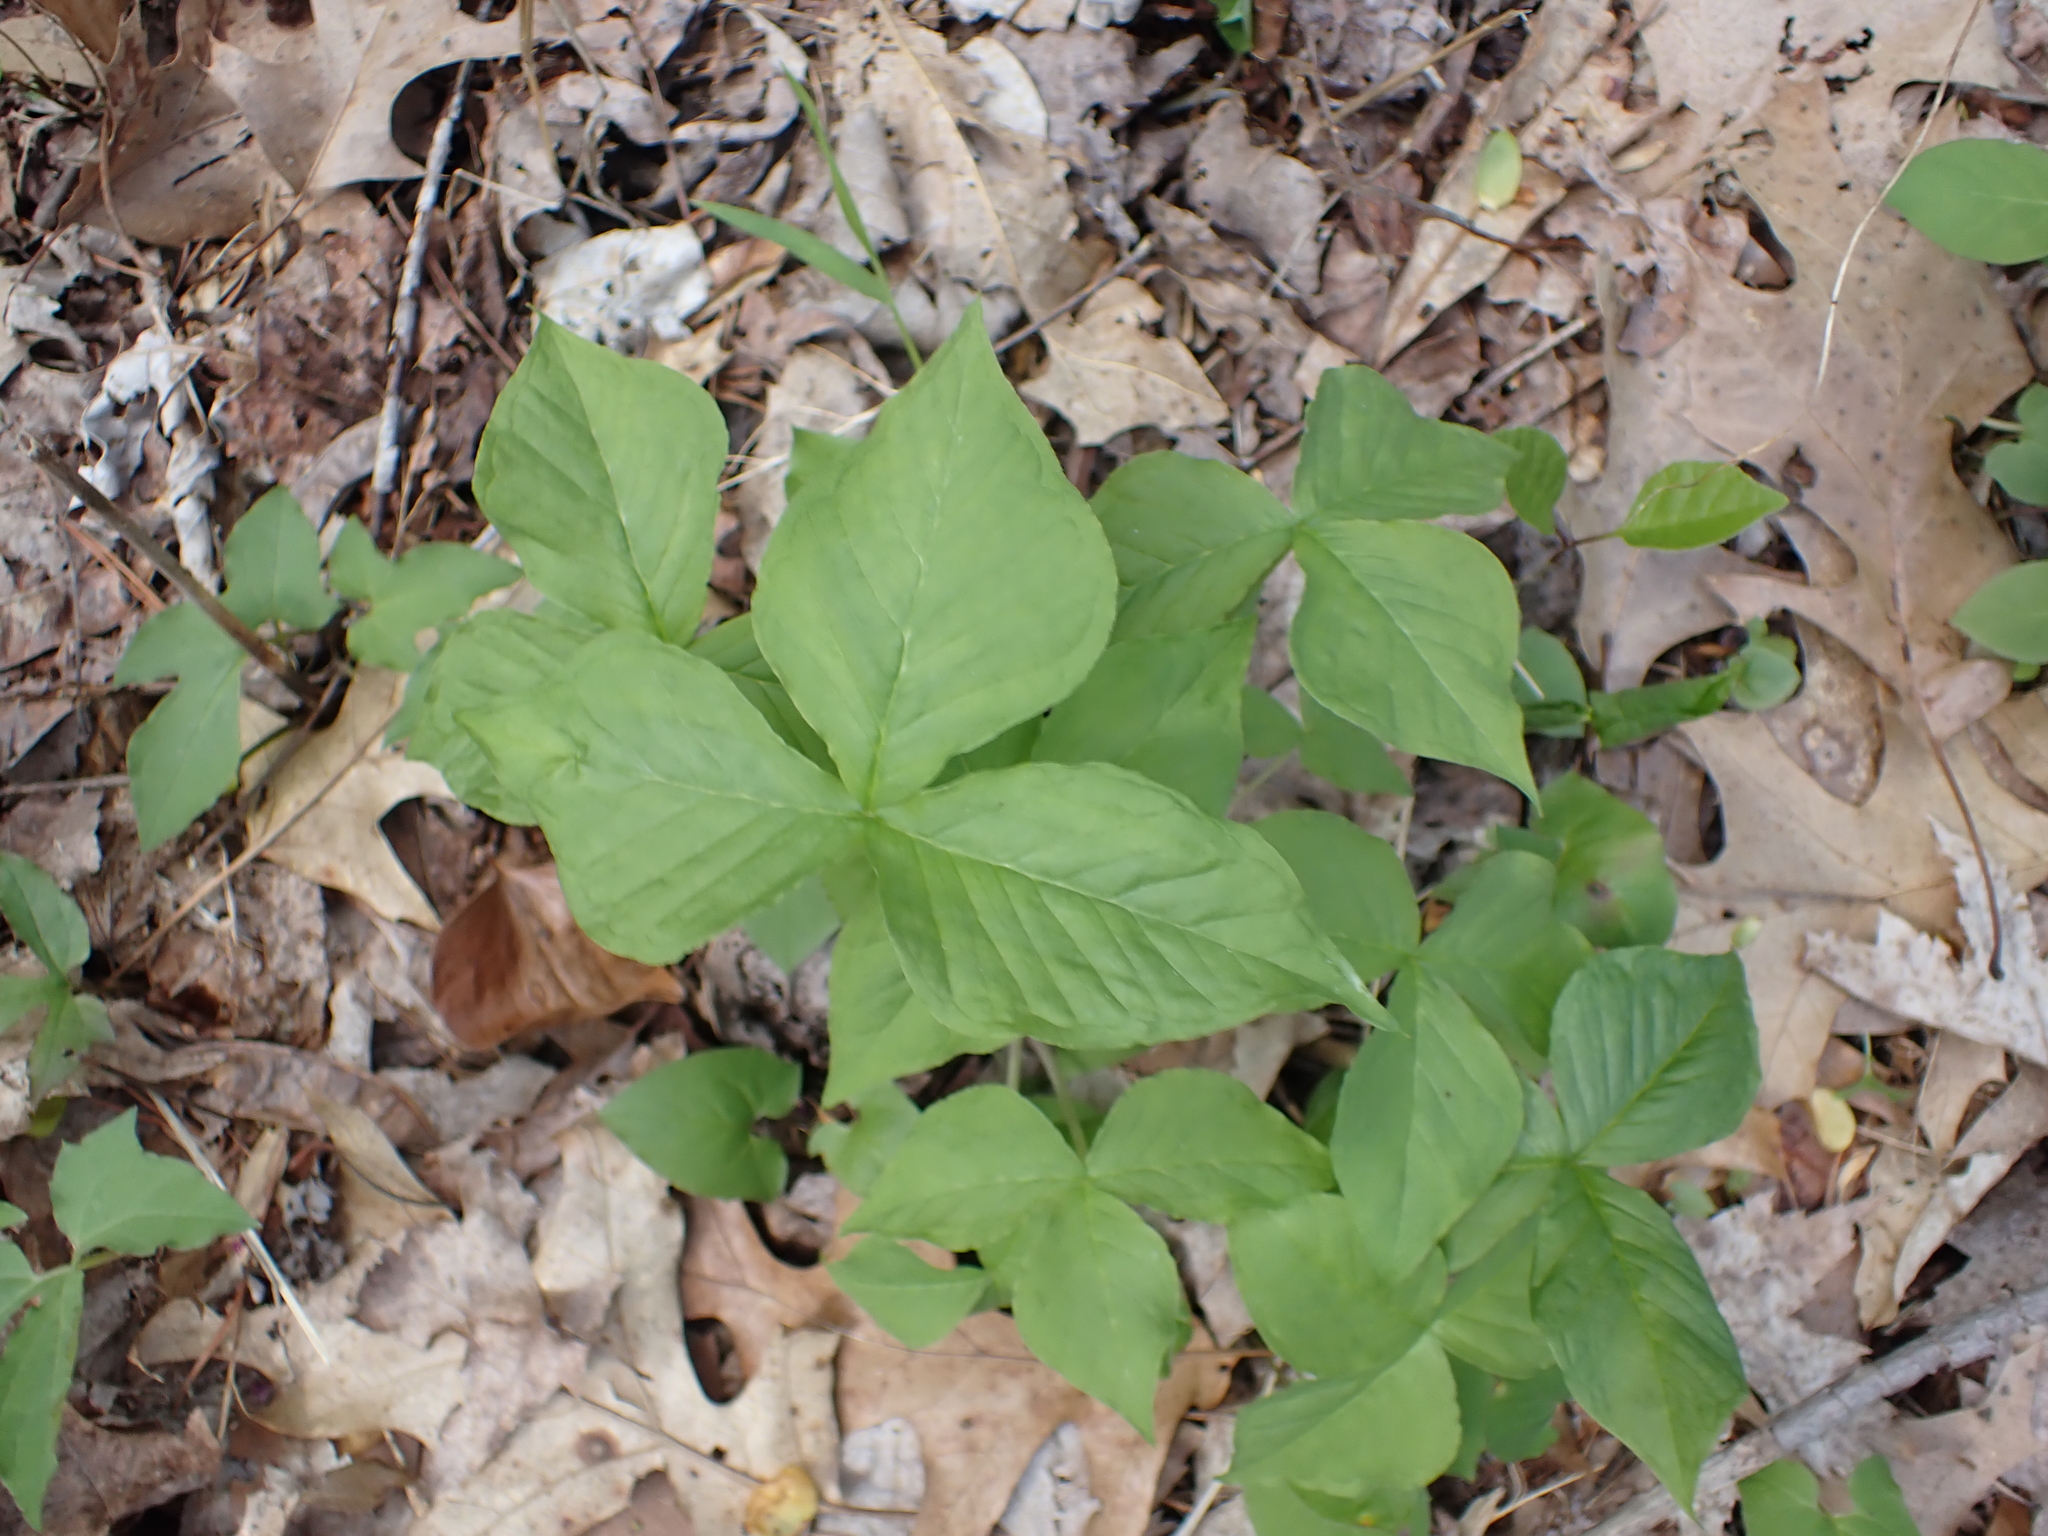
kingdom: Plantae
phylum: Tracheophyta
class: Liliopsida
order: Alismatales
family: Araceae
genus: Arisaema
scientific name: Arisaema triphyllum
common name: Jack-in-the-pulpit
